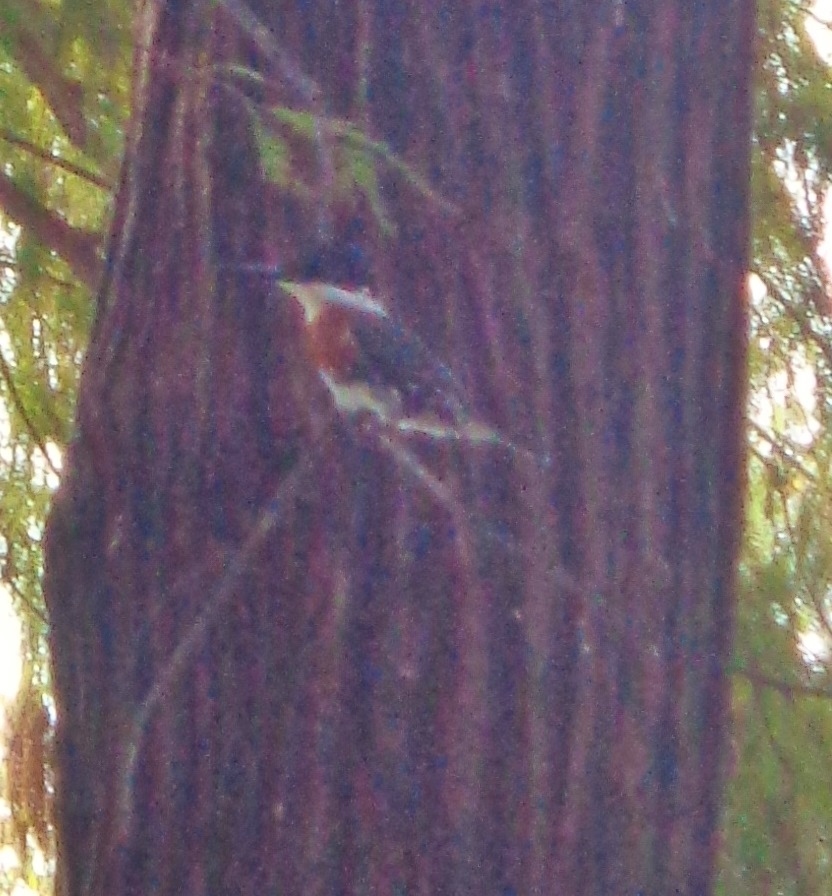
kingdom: Animalia
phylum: Chordata
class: Aves
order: Coraciiformes
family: Alcedinidae
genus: Chloroceryle
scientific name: Chloroceryle americana
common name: Green kingfisher
